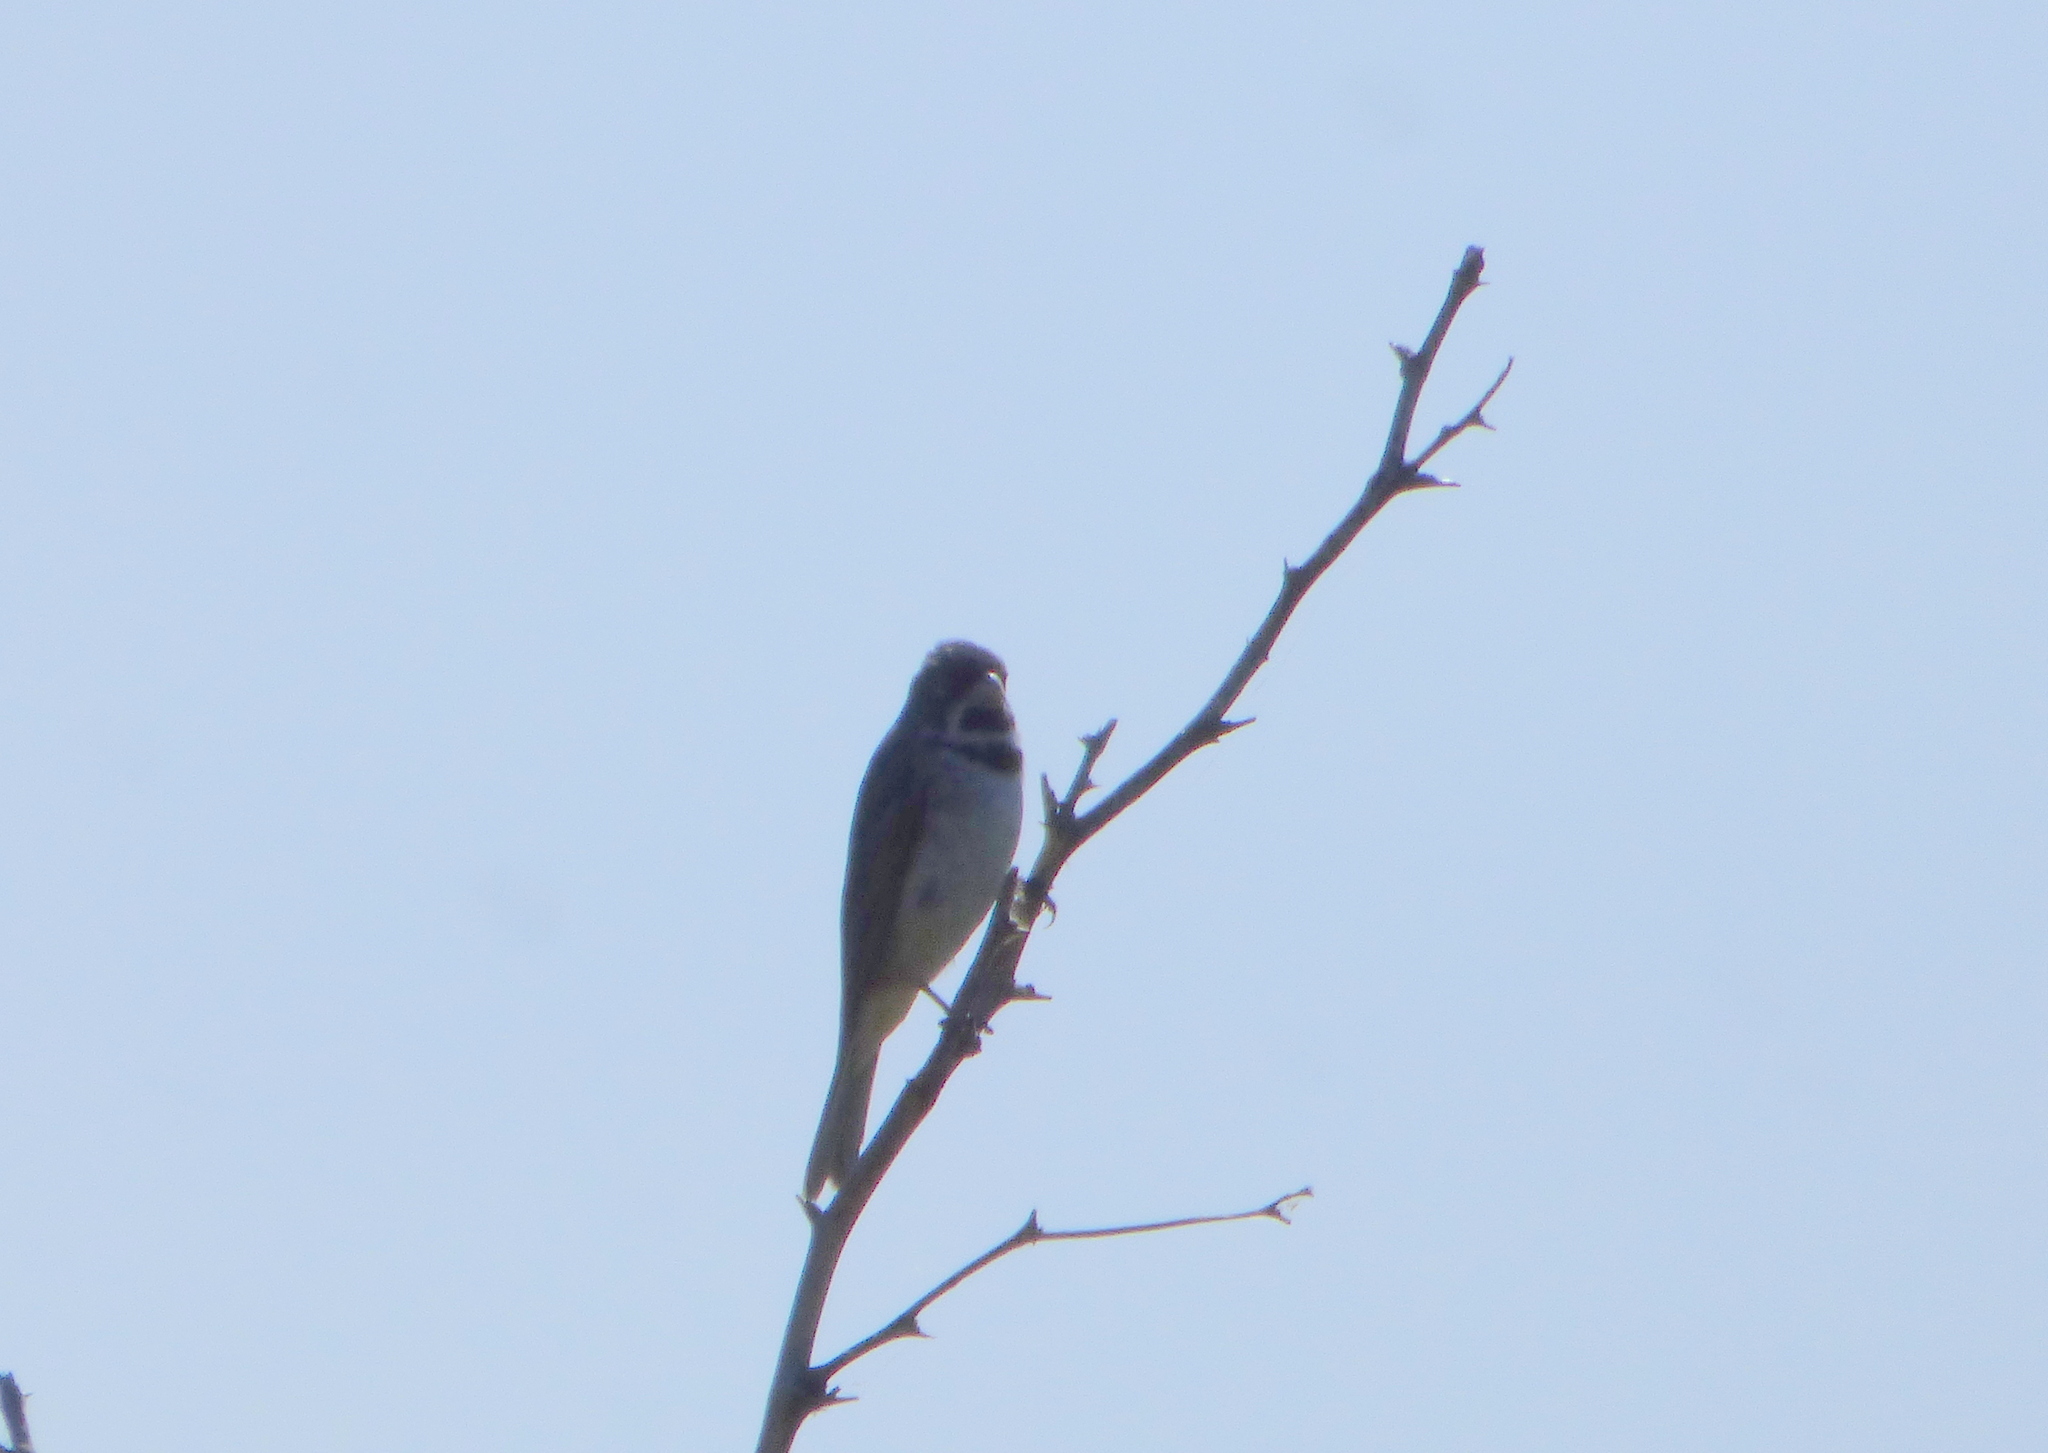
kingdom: Animalia
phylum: Chordata
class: Aves
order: Passeriformes
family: Thraupidae
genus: Sporophila
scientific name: Sporophila caerulescens
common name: Double-collared seedeater
